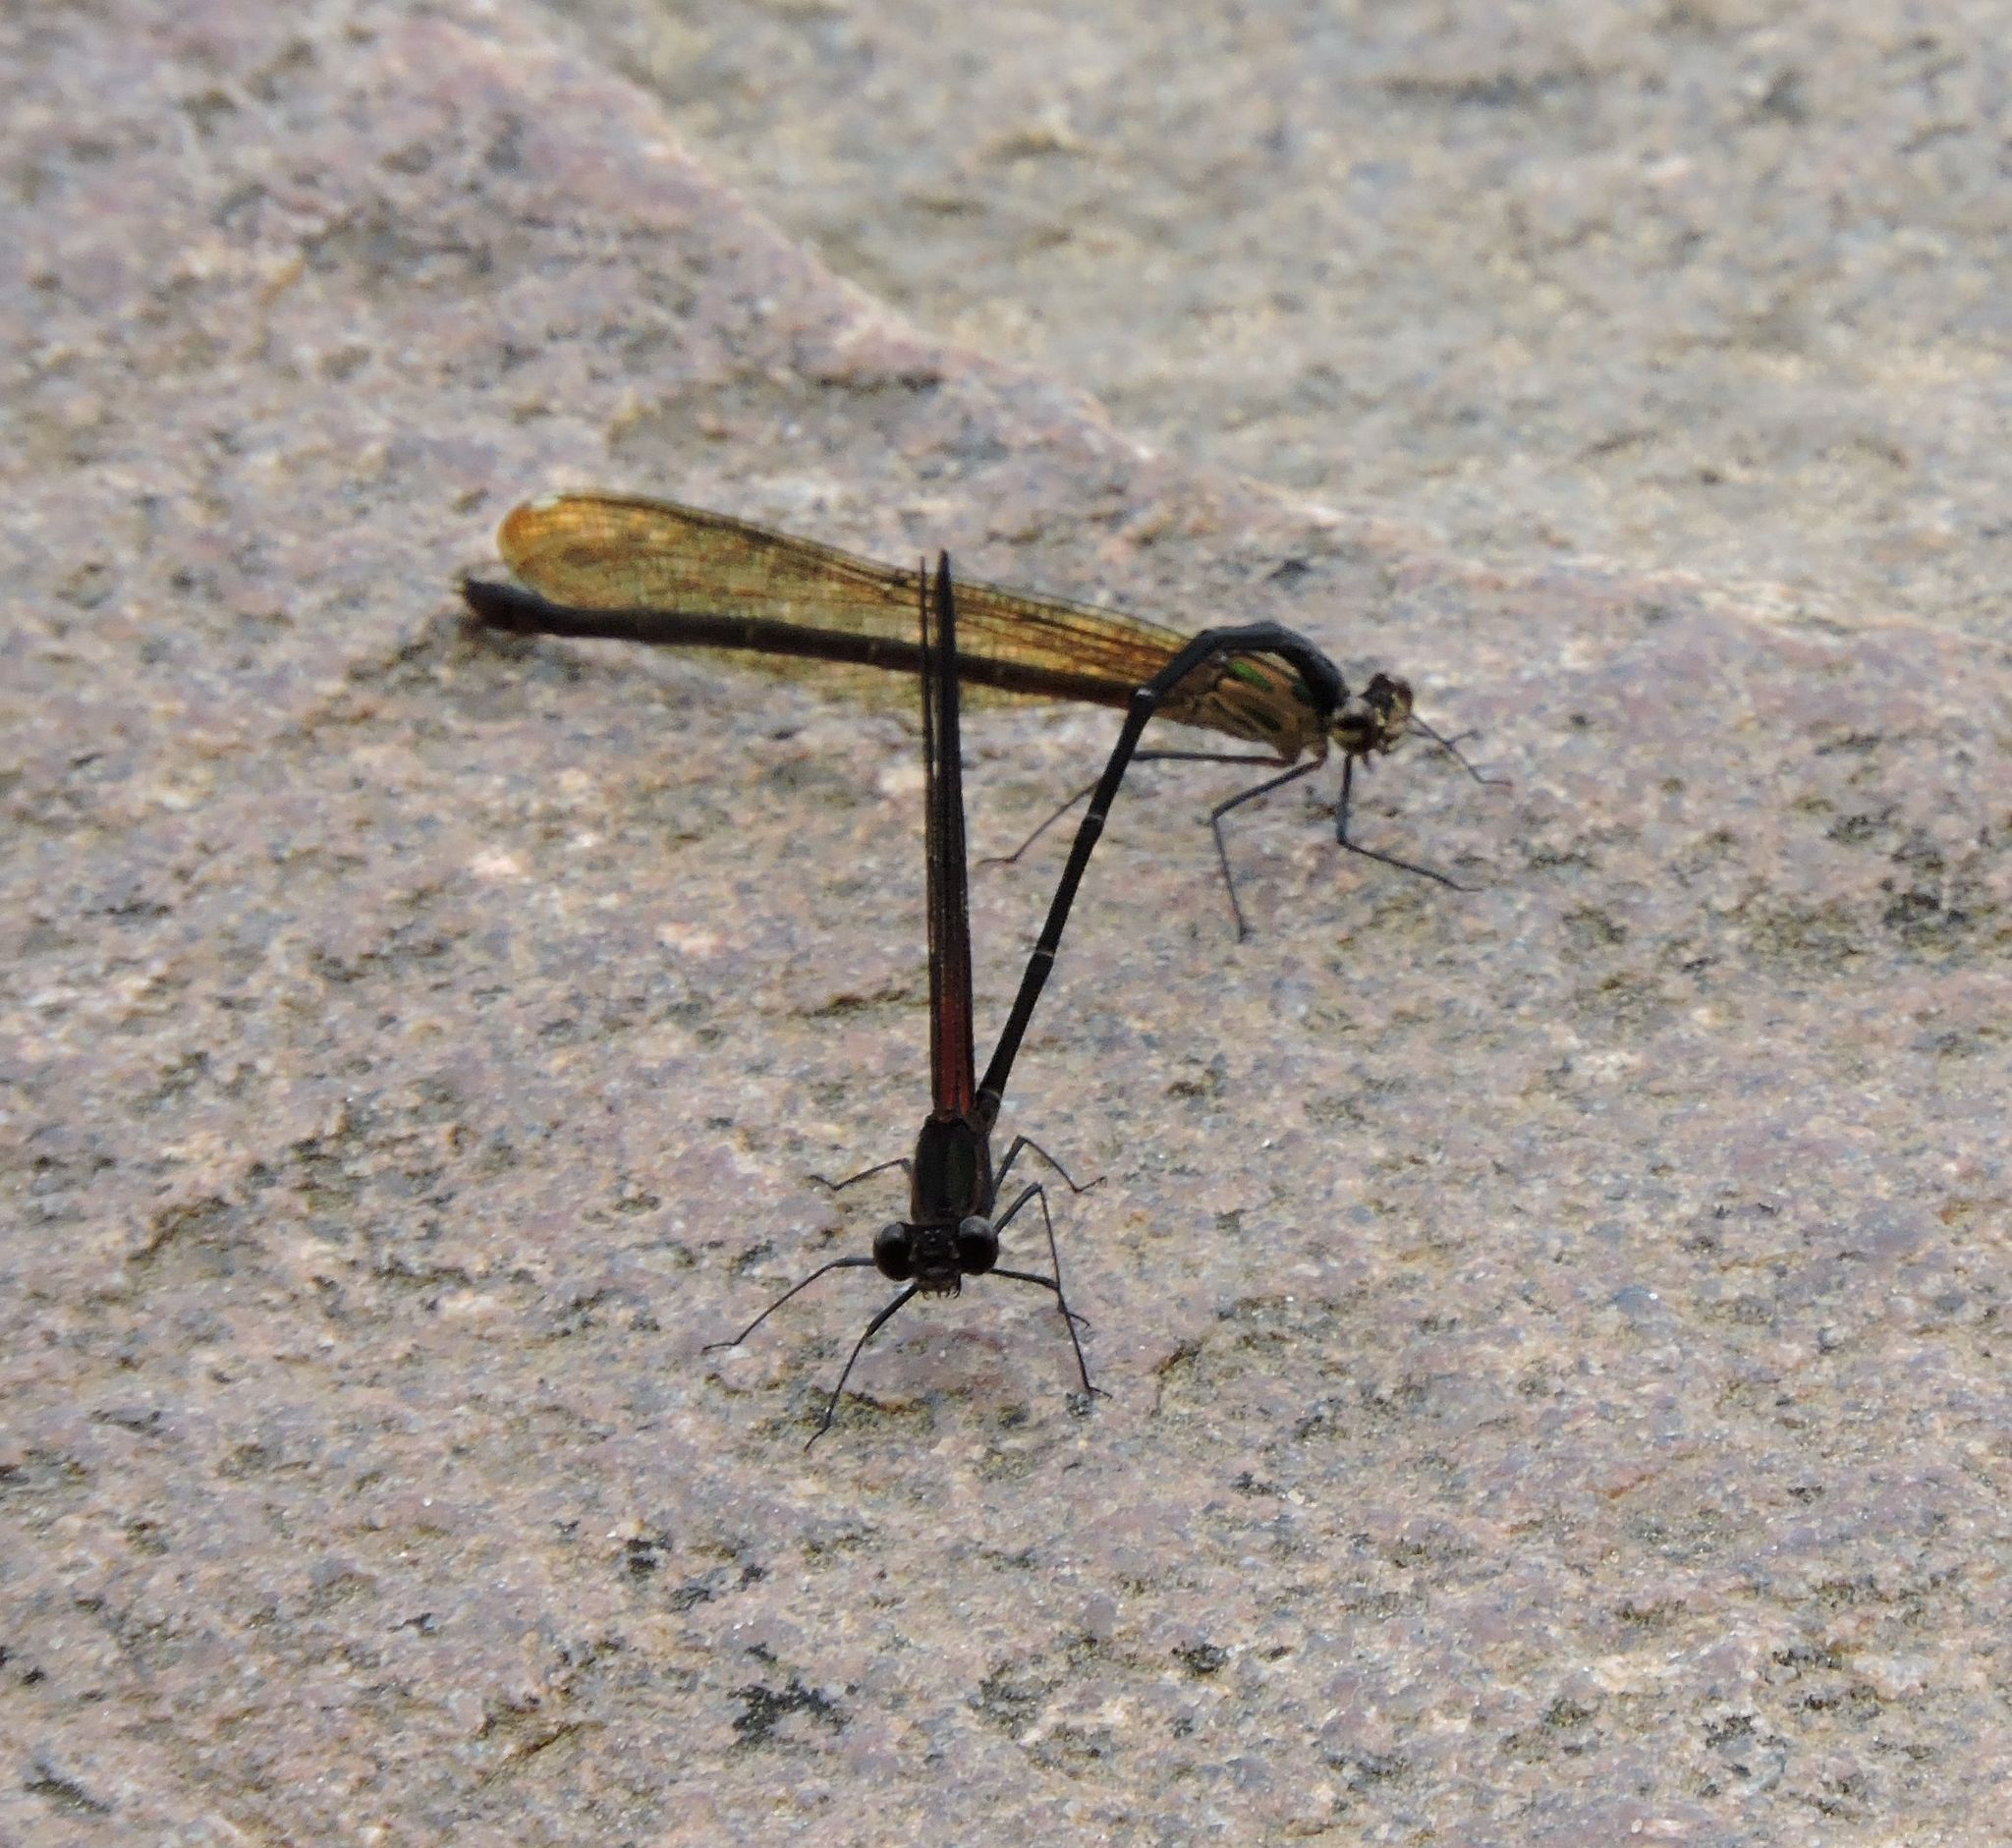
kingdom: Animalia
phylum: Arthropoda
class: Insecta
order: Odonata
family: Calopterygidae
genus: Hetaerina
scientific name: Hetaerina titia
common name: Smoky rubyspot
